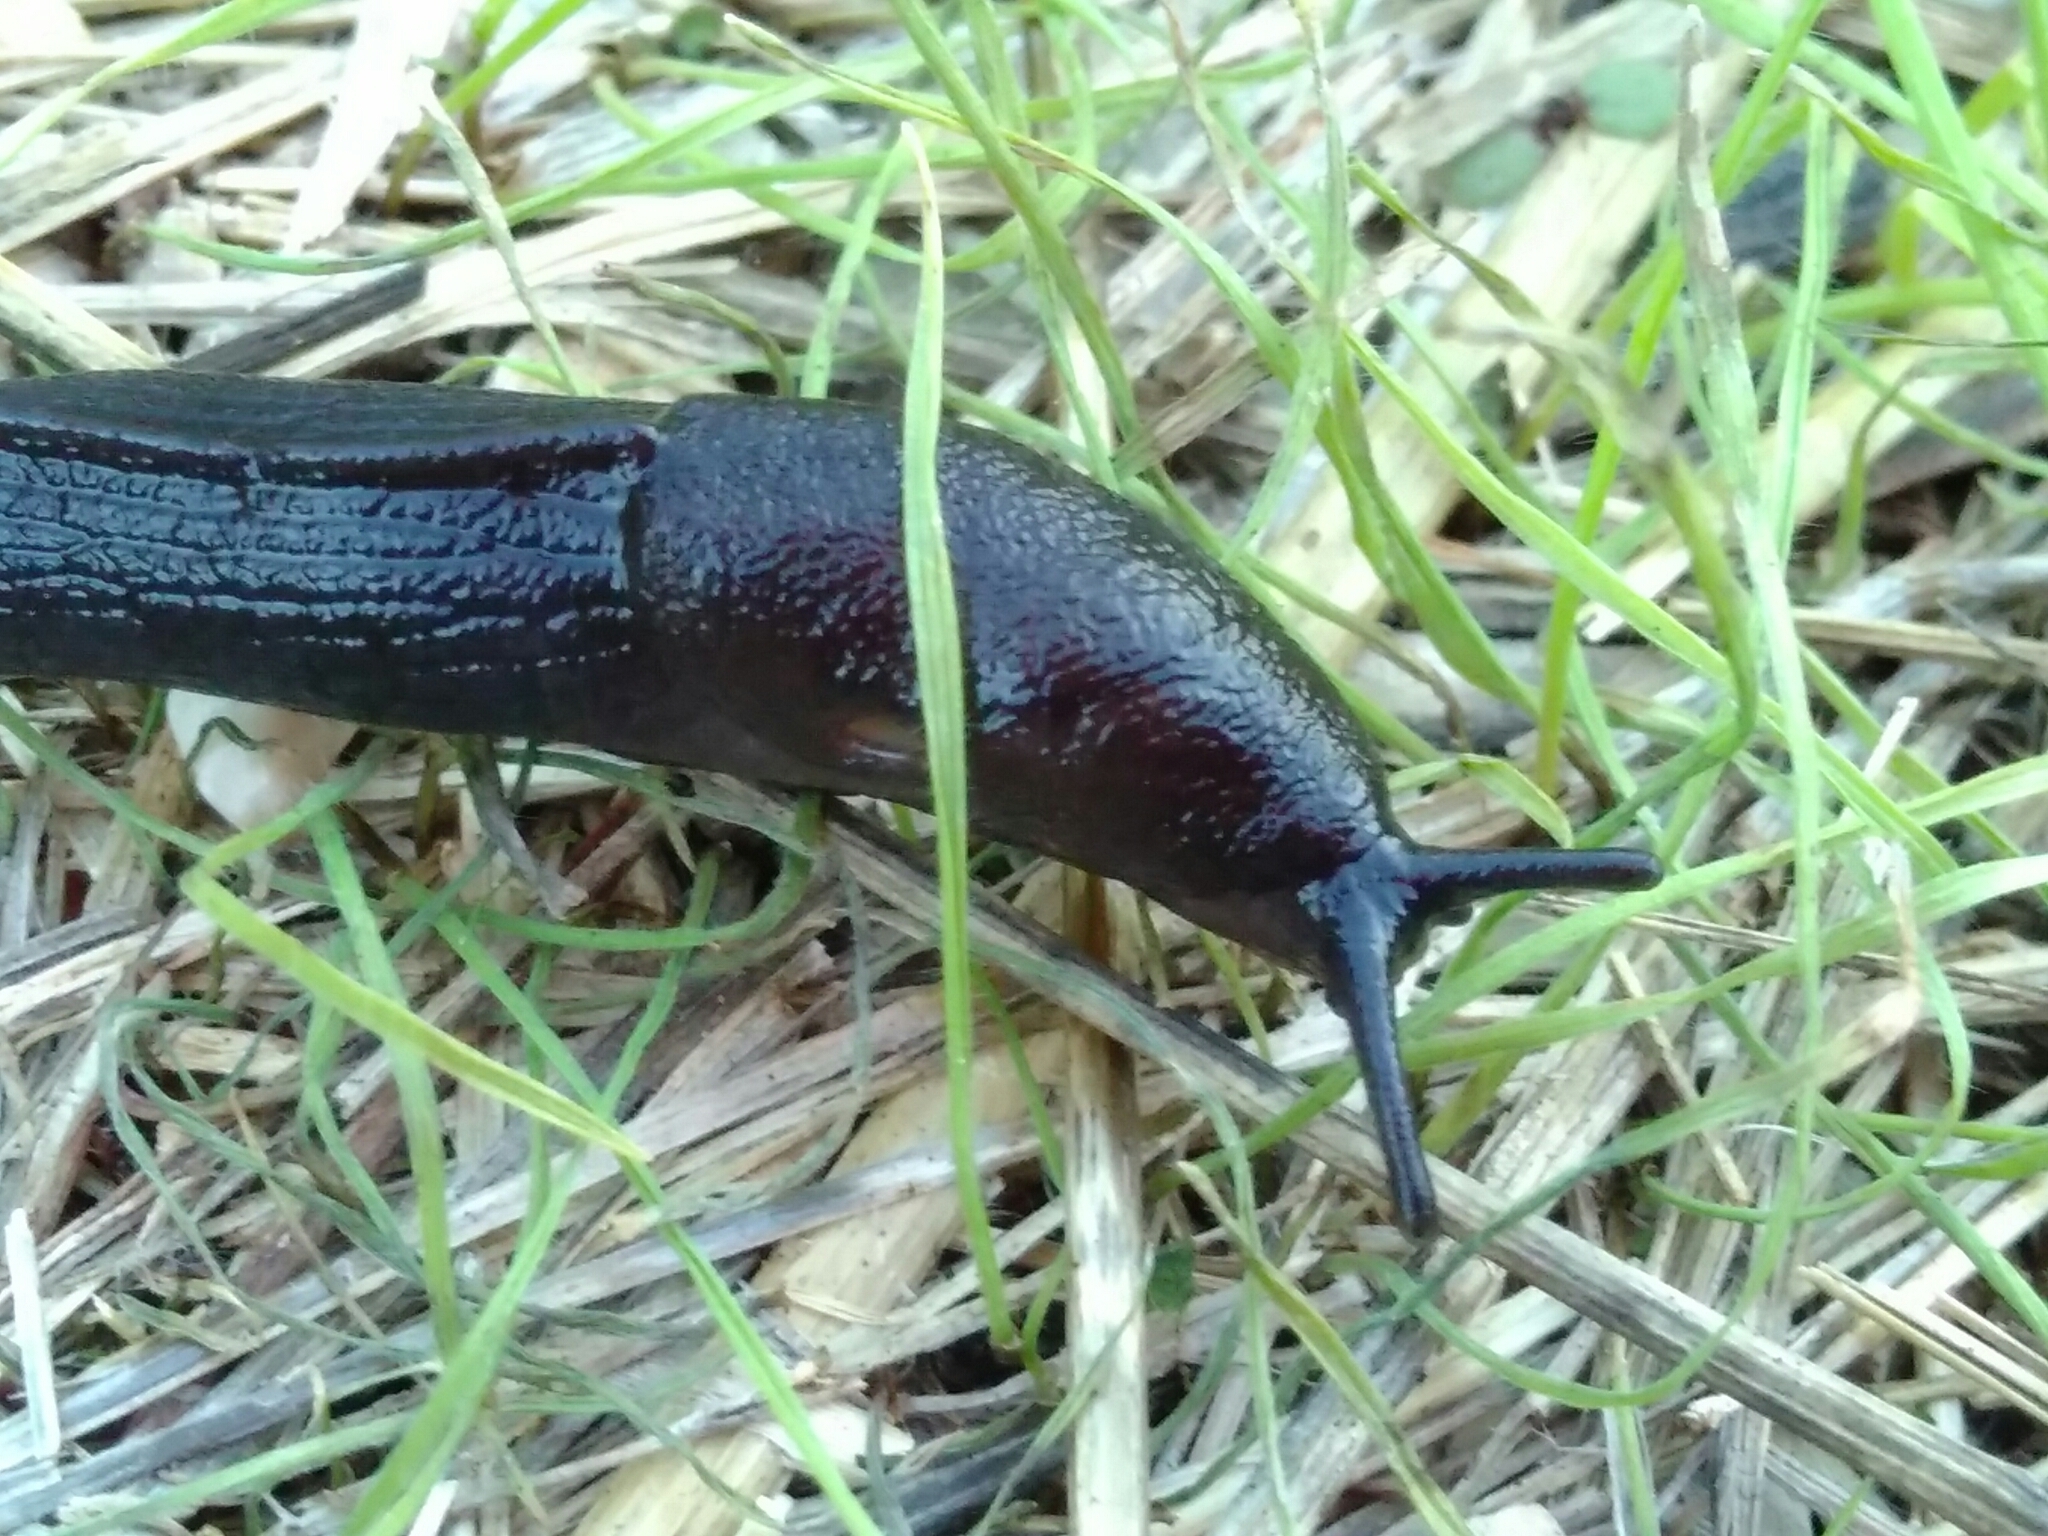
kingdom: Animalia
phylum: Mollusca
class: Gastropoda
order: Stylommatophora
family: Milacidae
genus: Milax
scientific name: Milax nigricans
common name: Black slug
